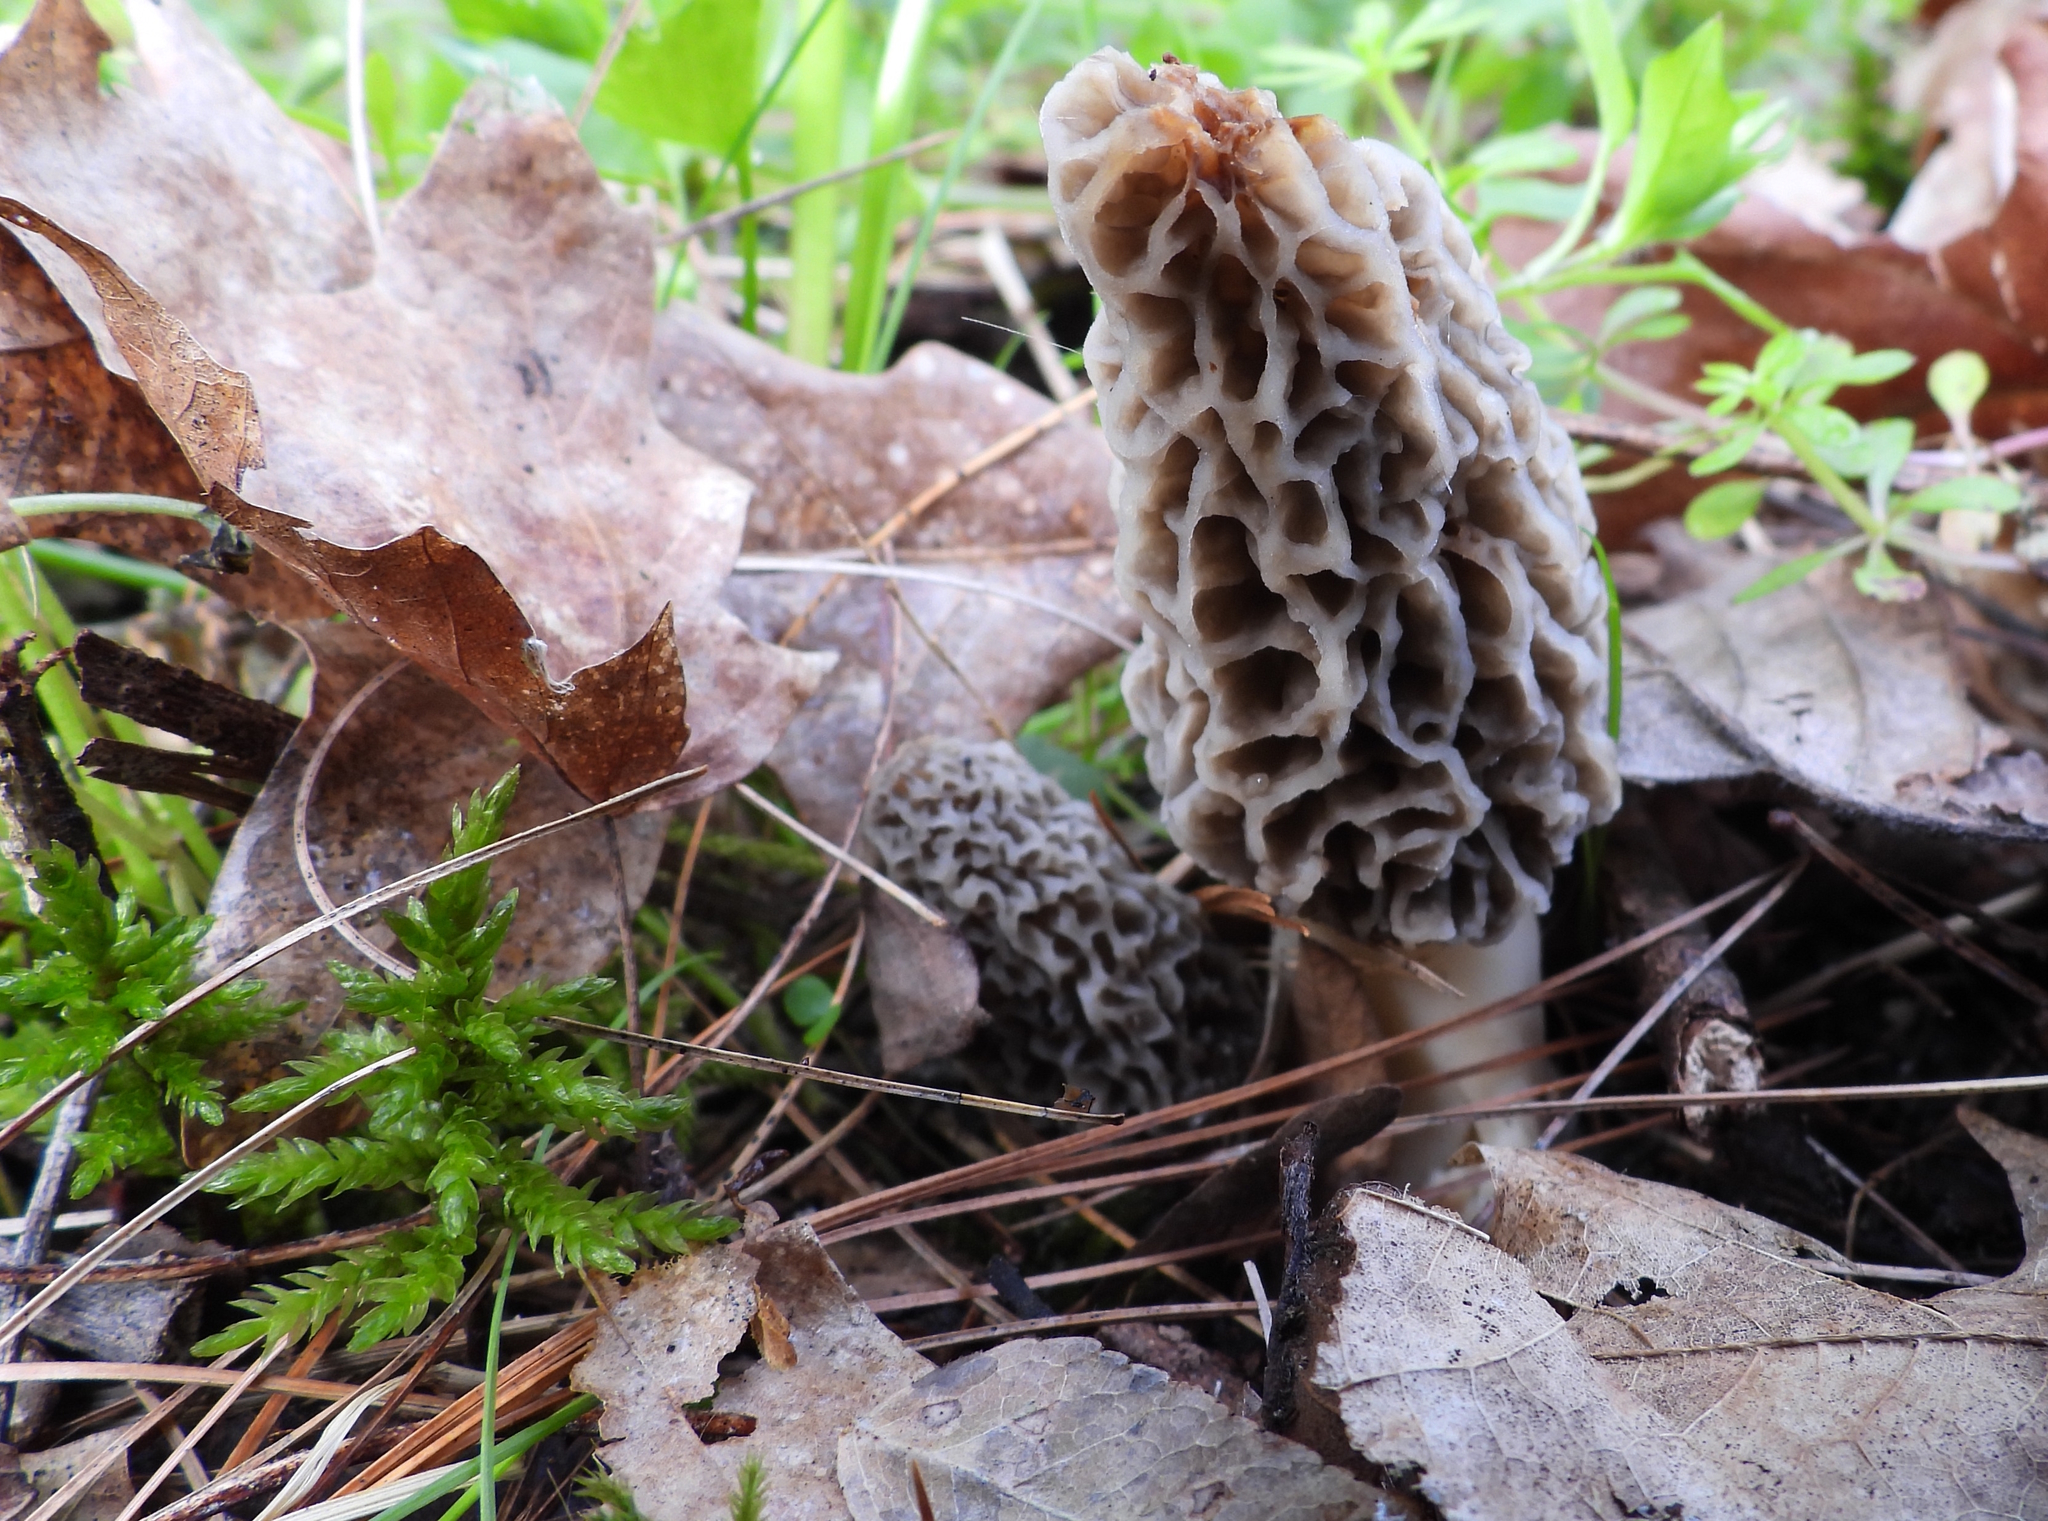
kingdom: Fungi
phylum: Ascomycota
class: Pezizomycetes
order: Pezizales
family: Morchellaceae
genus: Morchella
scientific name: Morchella americana
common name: White morel
